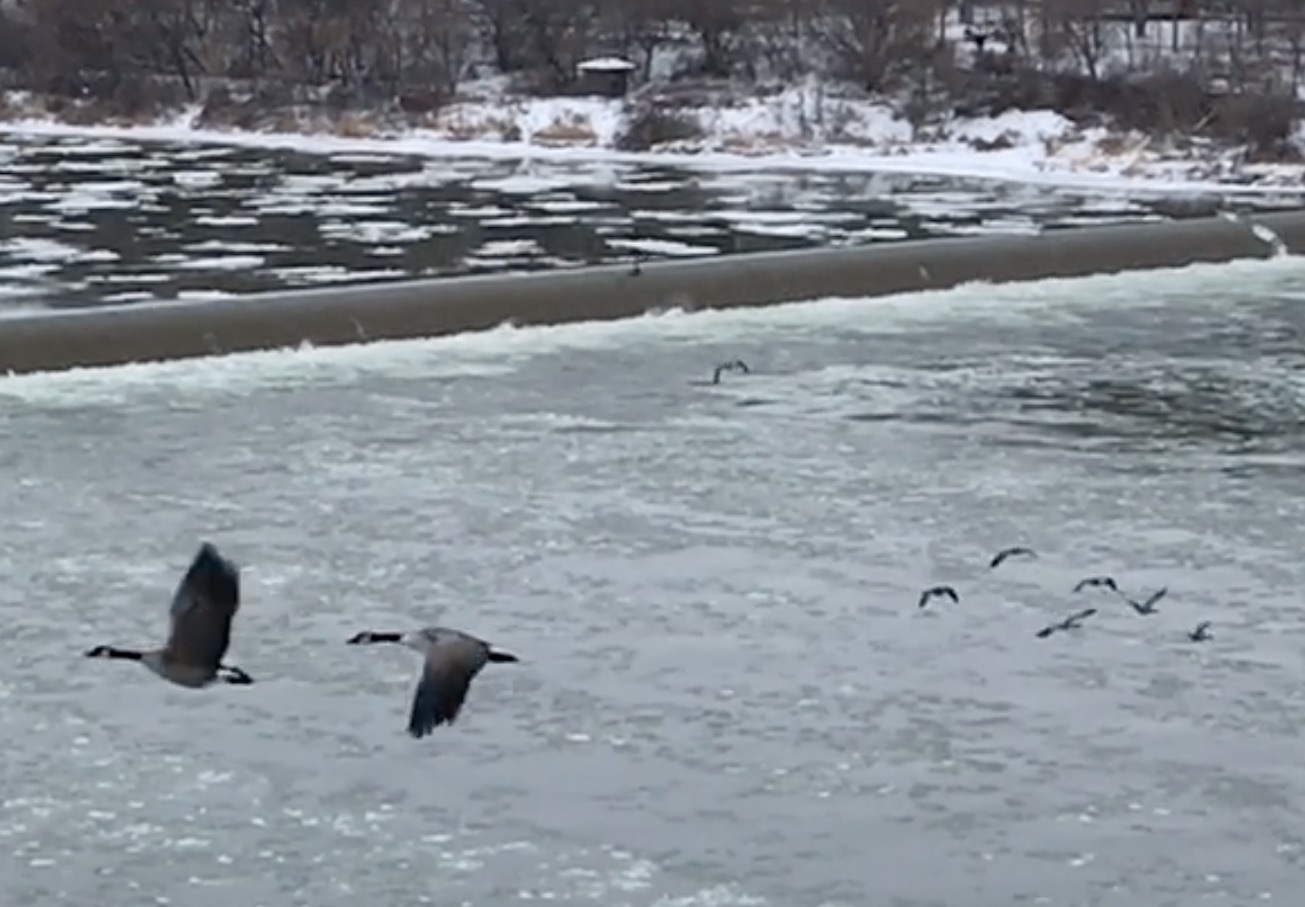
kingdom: Animalia
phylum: Chordata
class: Aves
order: Anseriformes
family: Anatidae
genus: Branta
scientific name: Branta canadensis
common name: Canada goose
